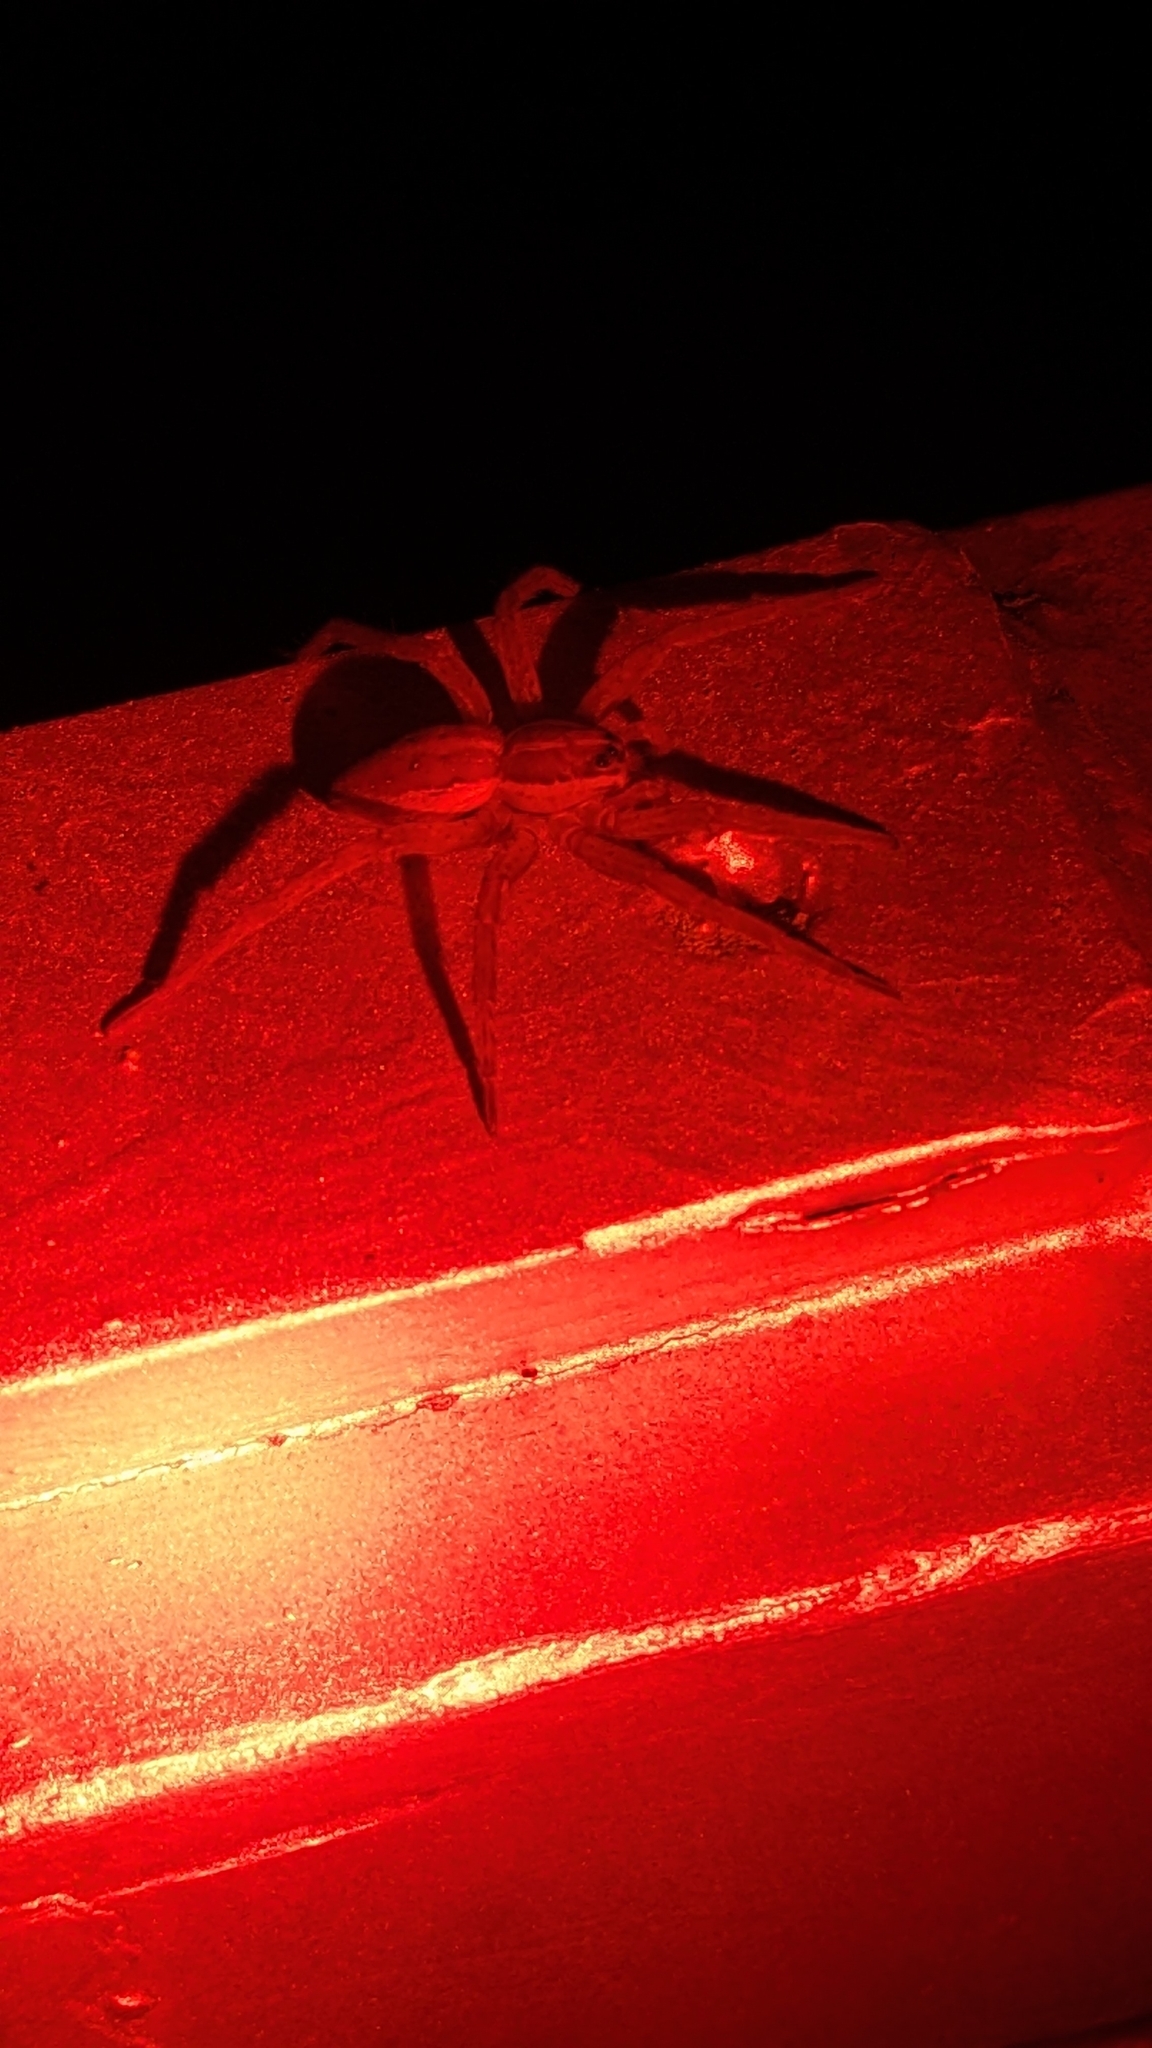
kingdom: Animalia
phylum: Arthropoda
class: Arachnida
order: Araneae
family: Pisauridae
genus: Dolomedes
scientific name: Dolomedes minor
